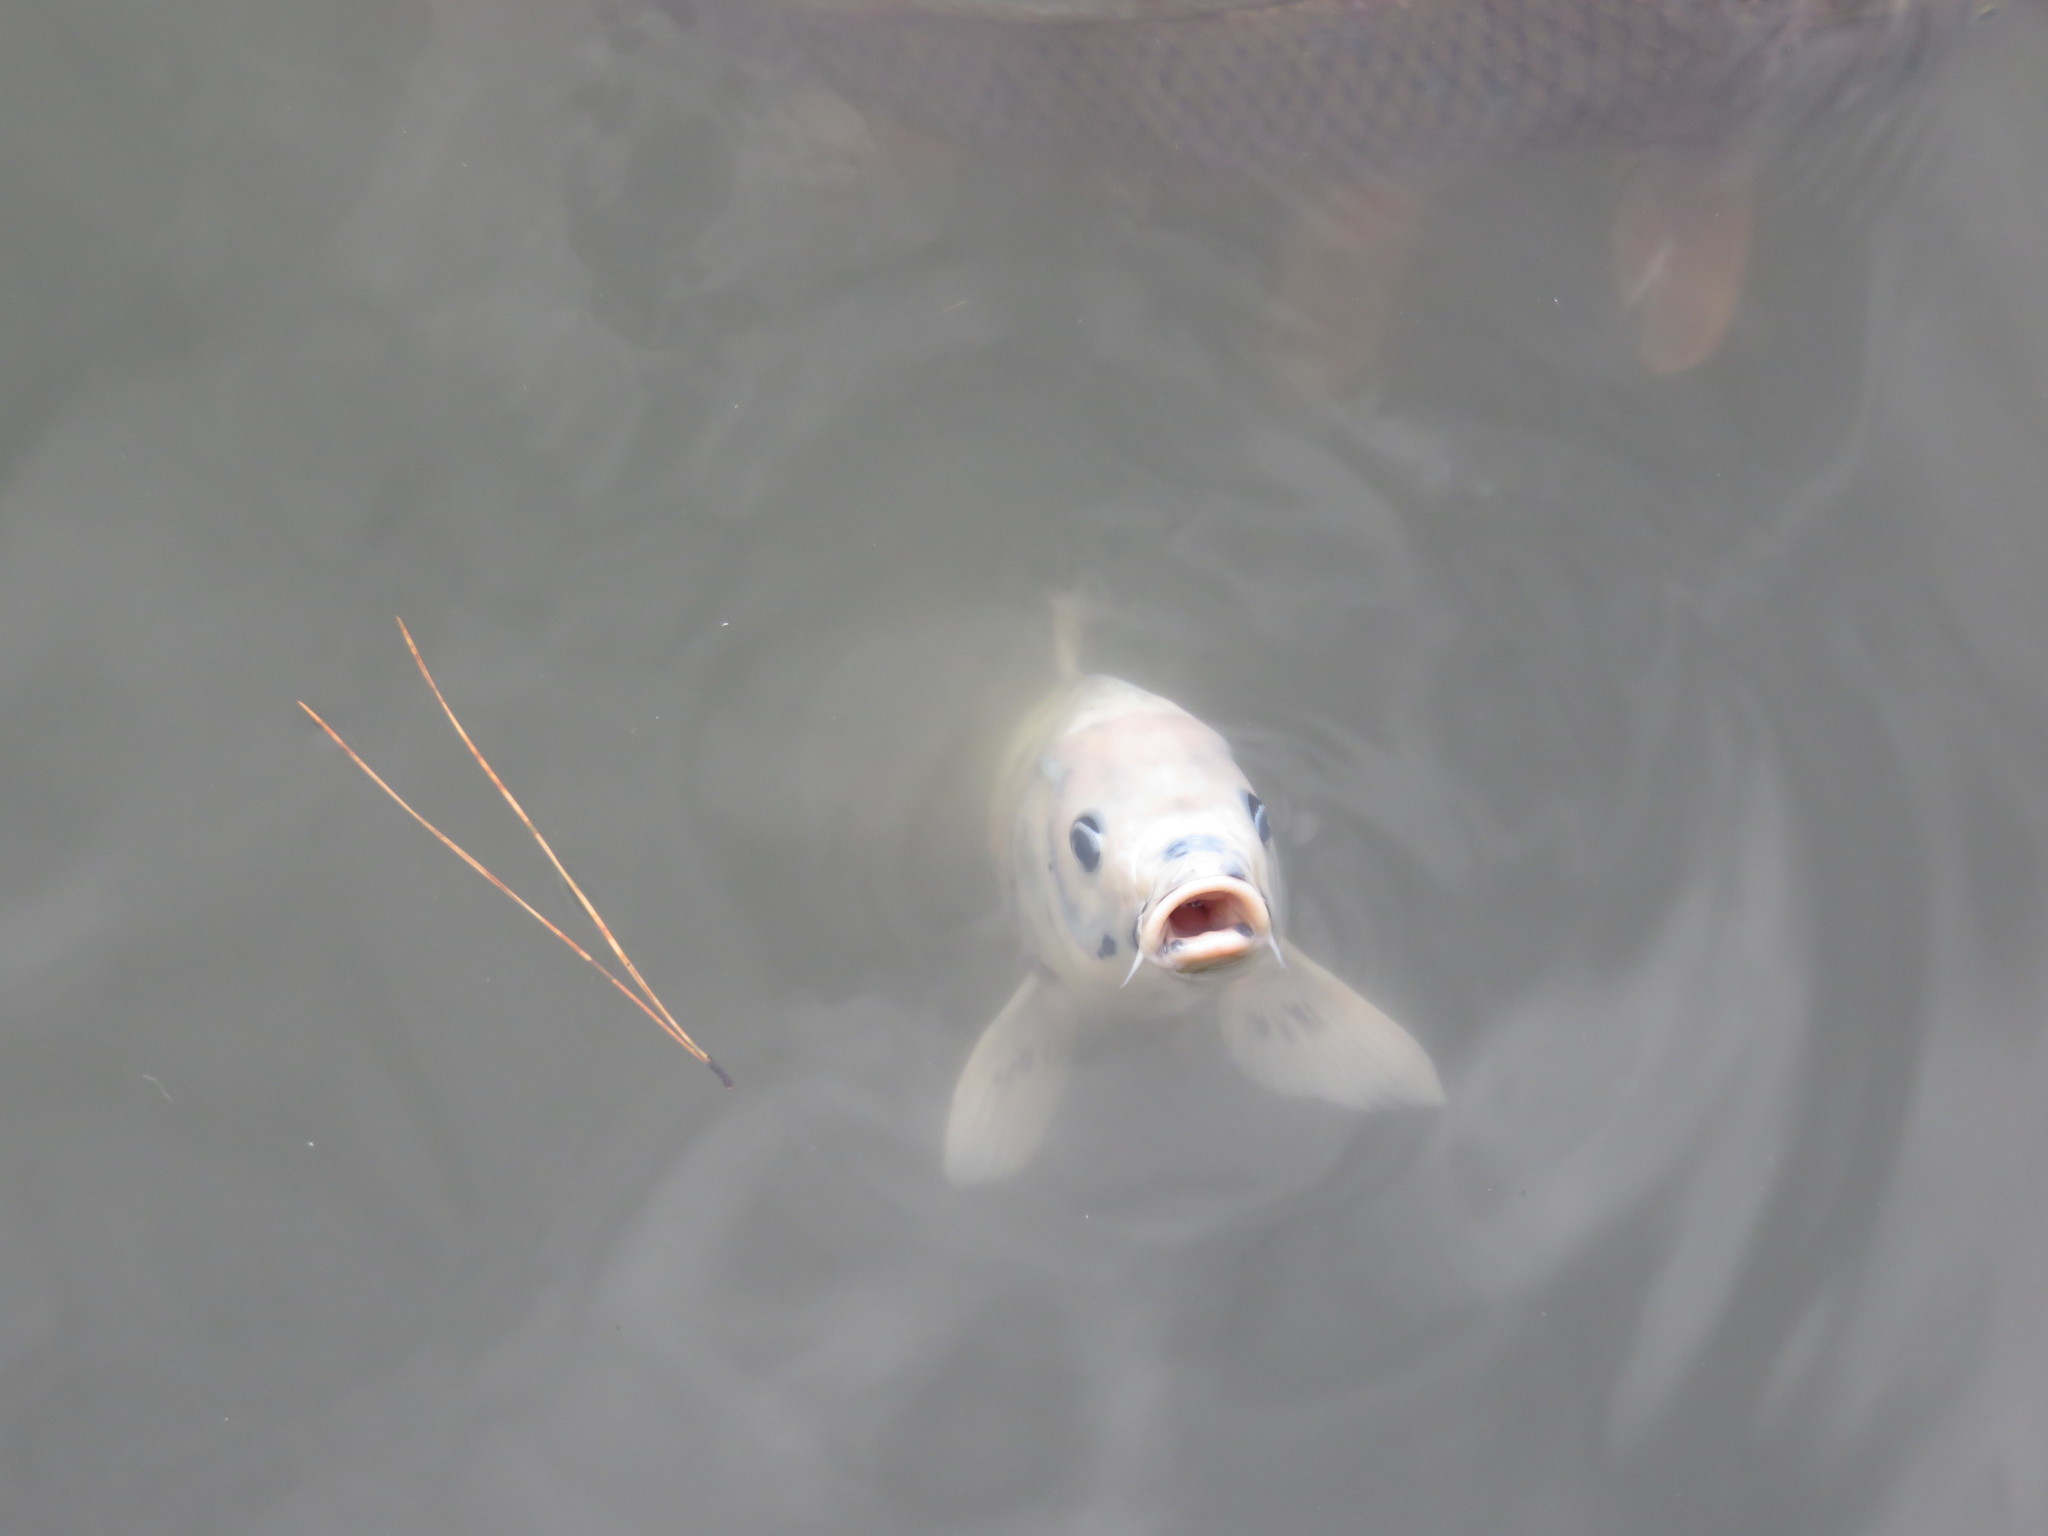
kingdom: Animalia
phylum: Chordata
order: Cypriniformes
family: Cyprinidae
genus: Cyprinus
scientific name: Cyprinus rubrofuscus
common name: Koi
